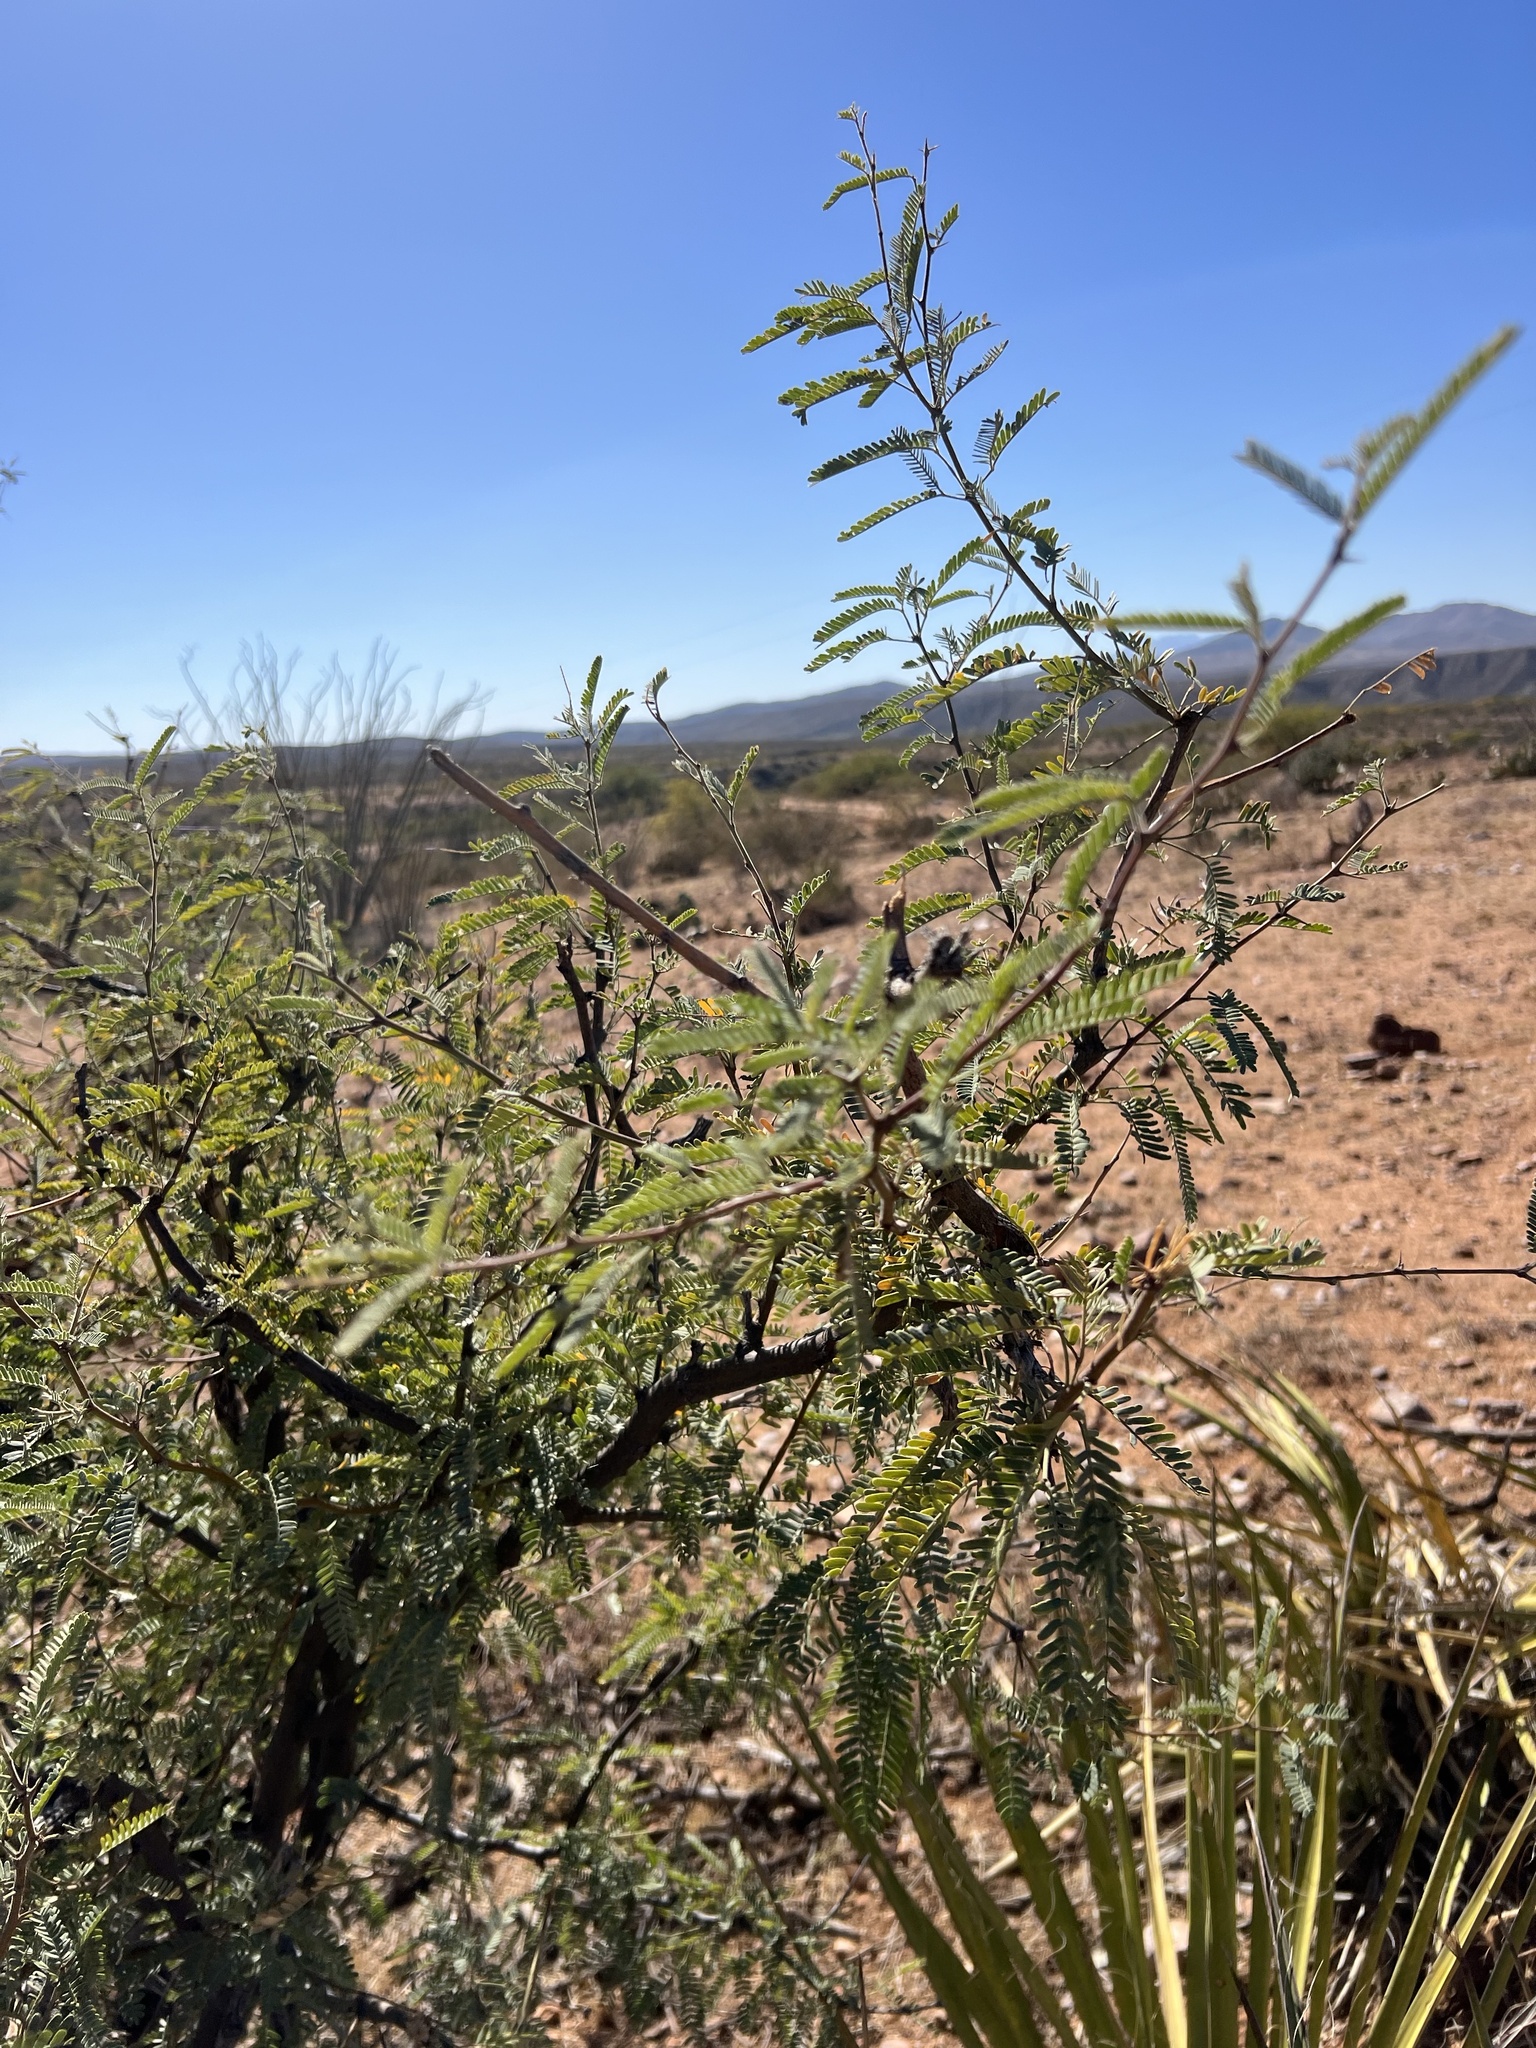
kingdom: Plantae
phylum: Tracheophyta
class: Magnoliopsida
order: Fabales
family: Fabaceae
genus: Prosopis
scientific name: Prosopis velutina
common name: Velvet mesquite
